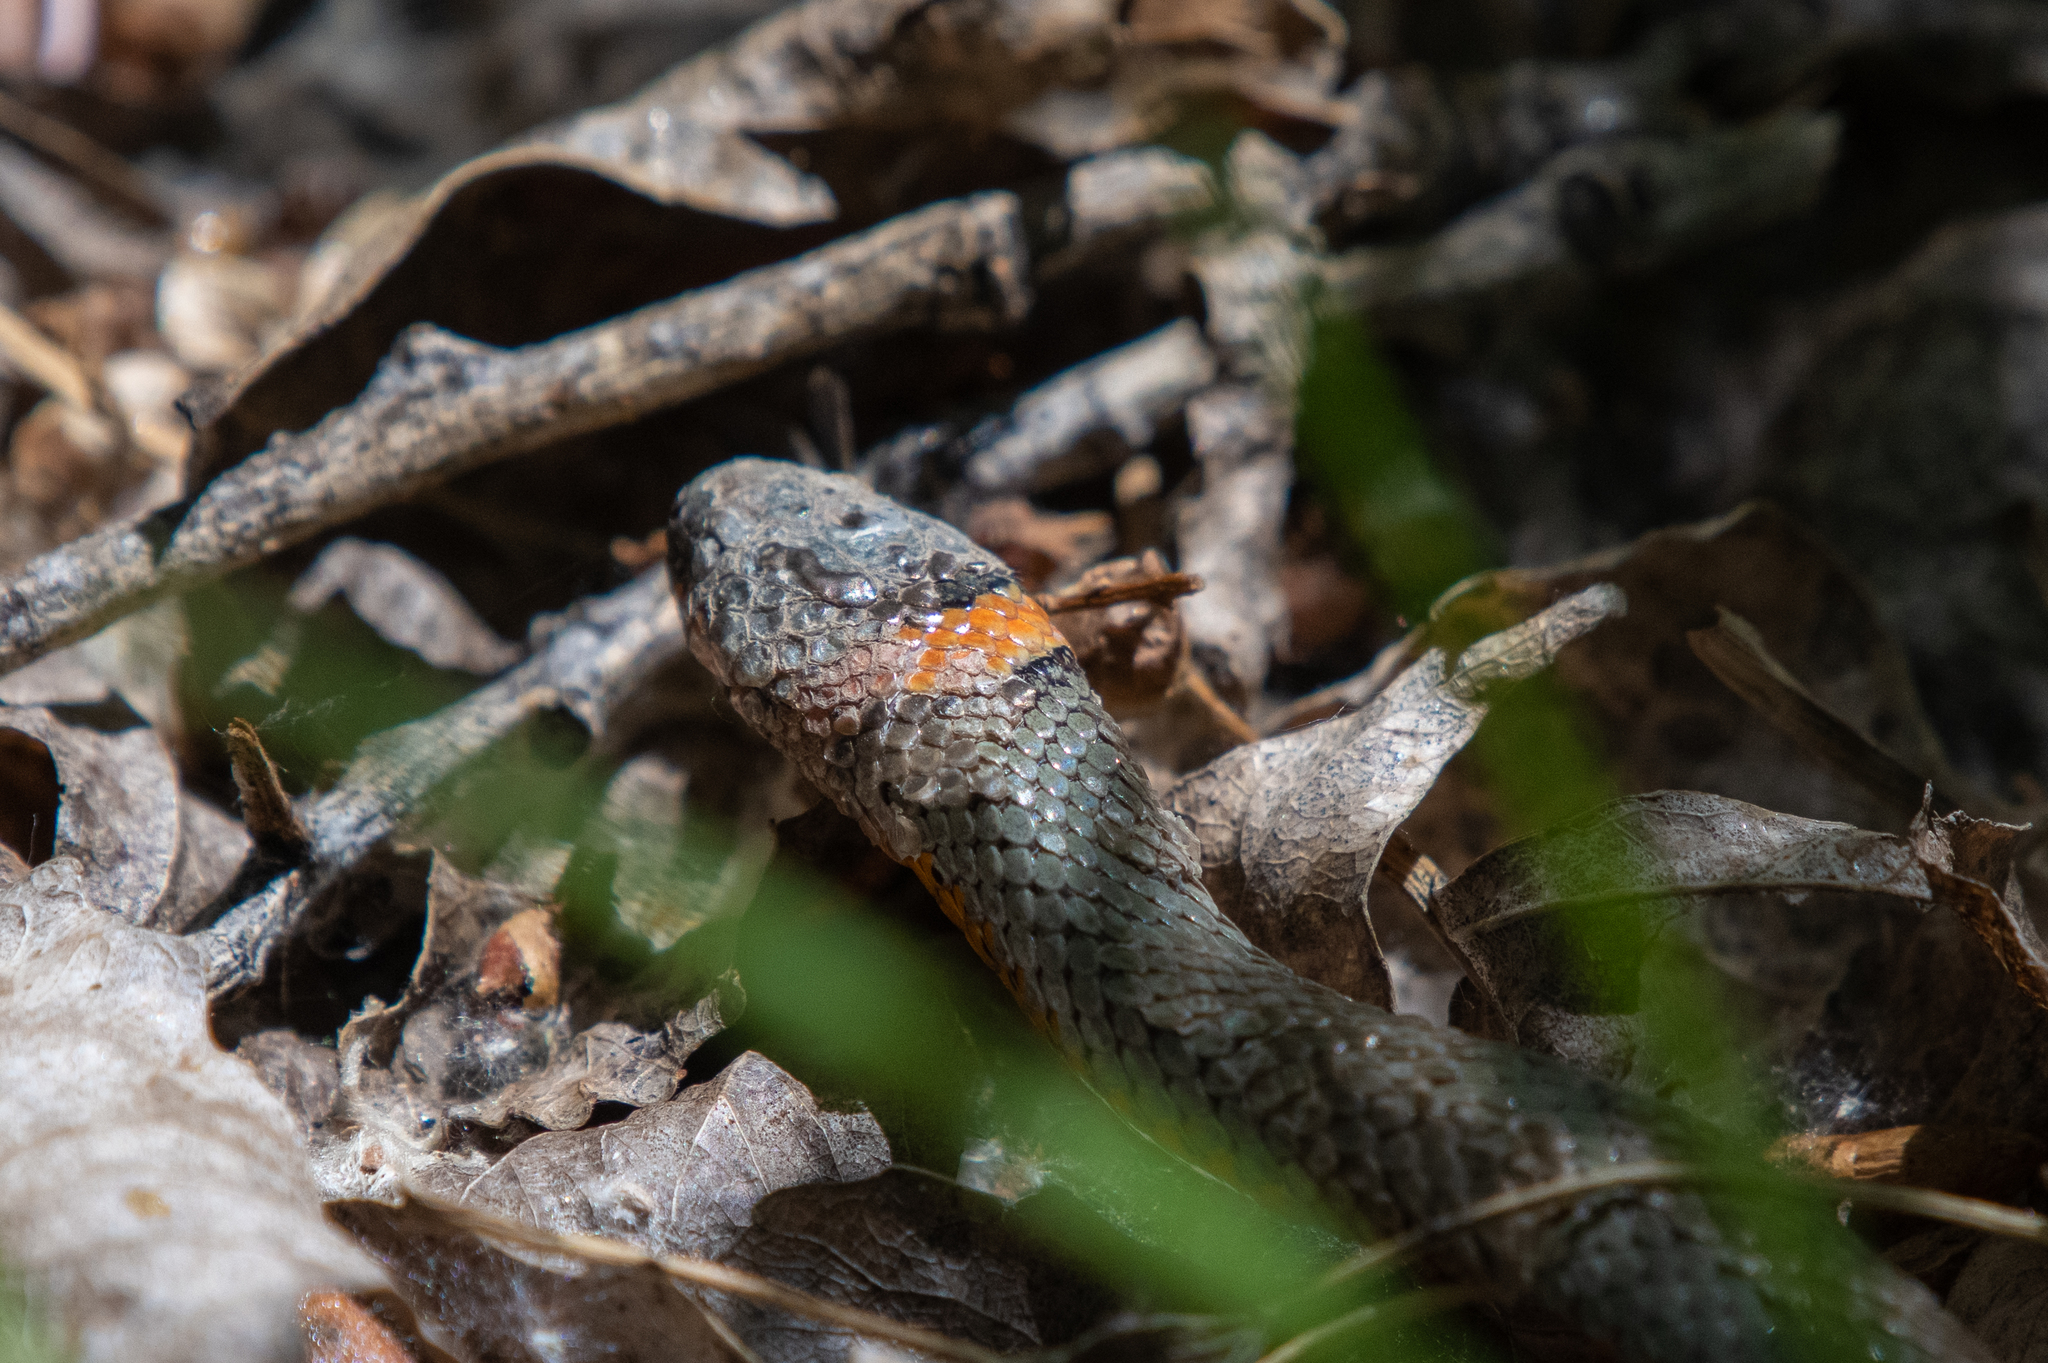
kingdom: Animalia
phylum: Chordata
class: Squamata
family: Colubridae
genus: Diadophis
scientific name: Diadophis punctatus
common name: Ringneck snake
